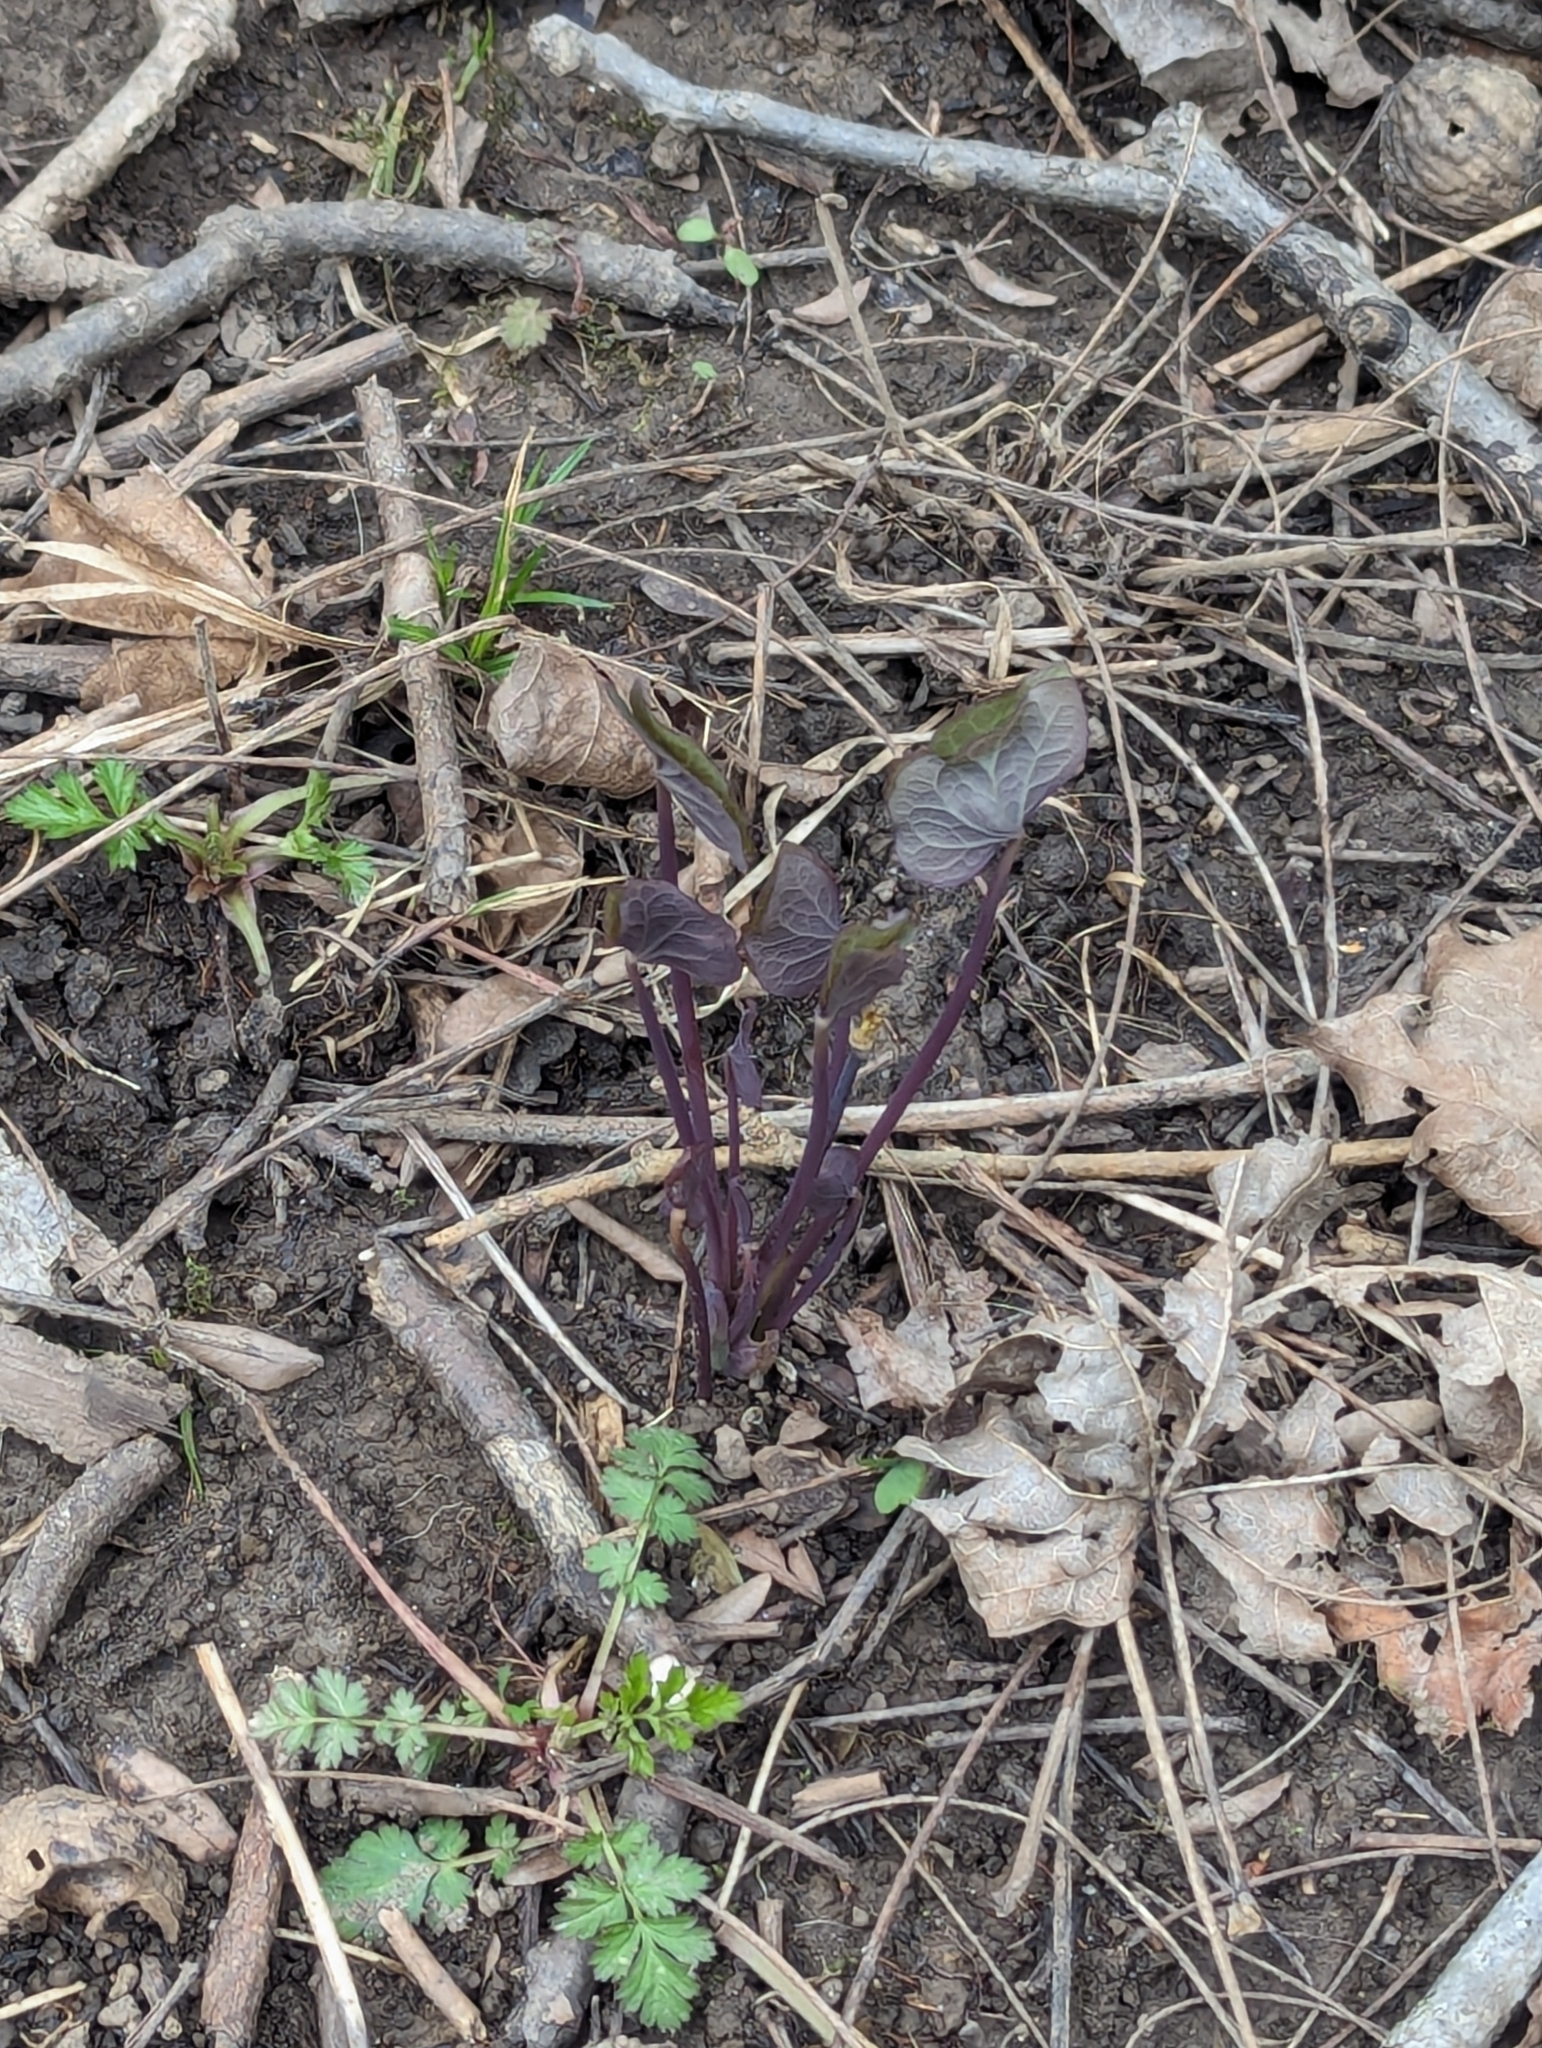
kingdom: Plantae
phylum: Tracheophyta
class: Magnoliopsida
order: Ranunculales
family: Berberidaceae
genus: Jeffersonia
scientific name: Jeffersonia diphylla
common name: Rheumatism-root
